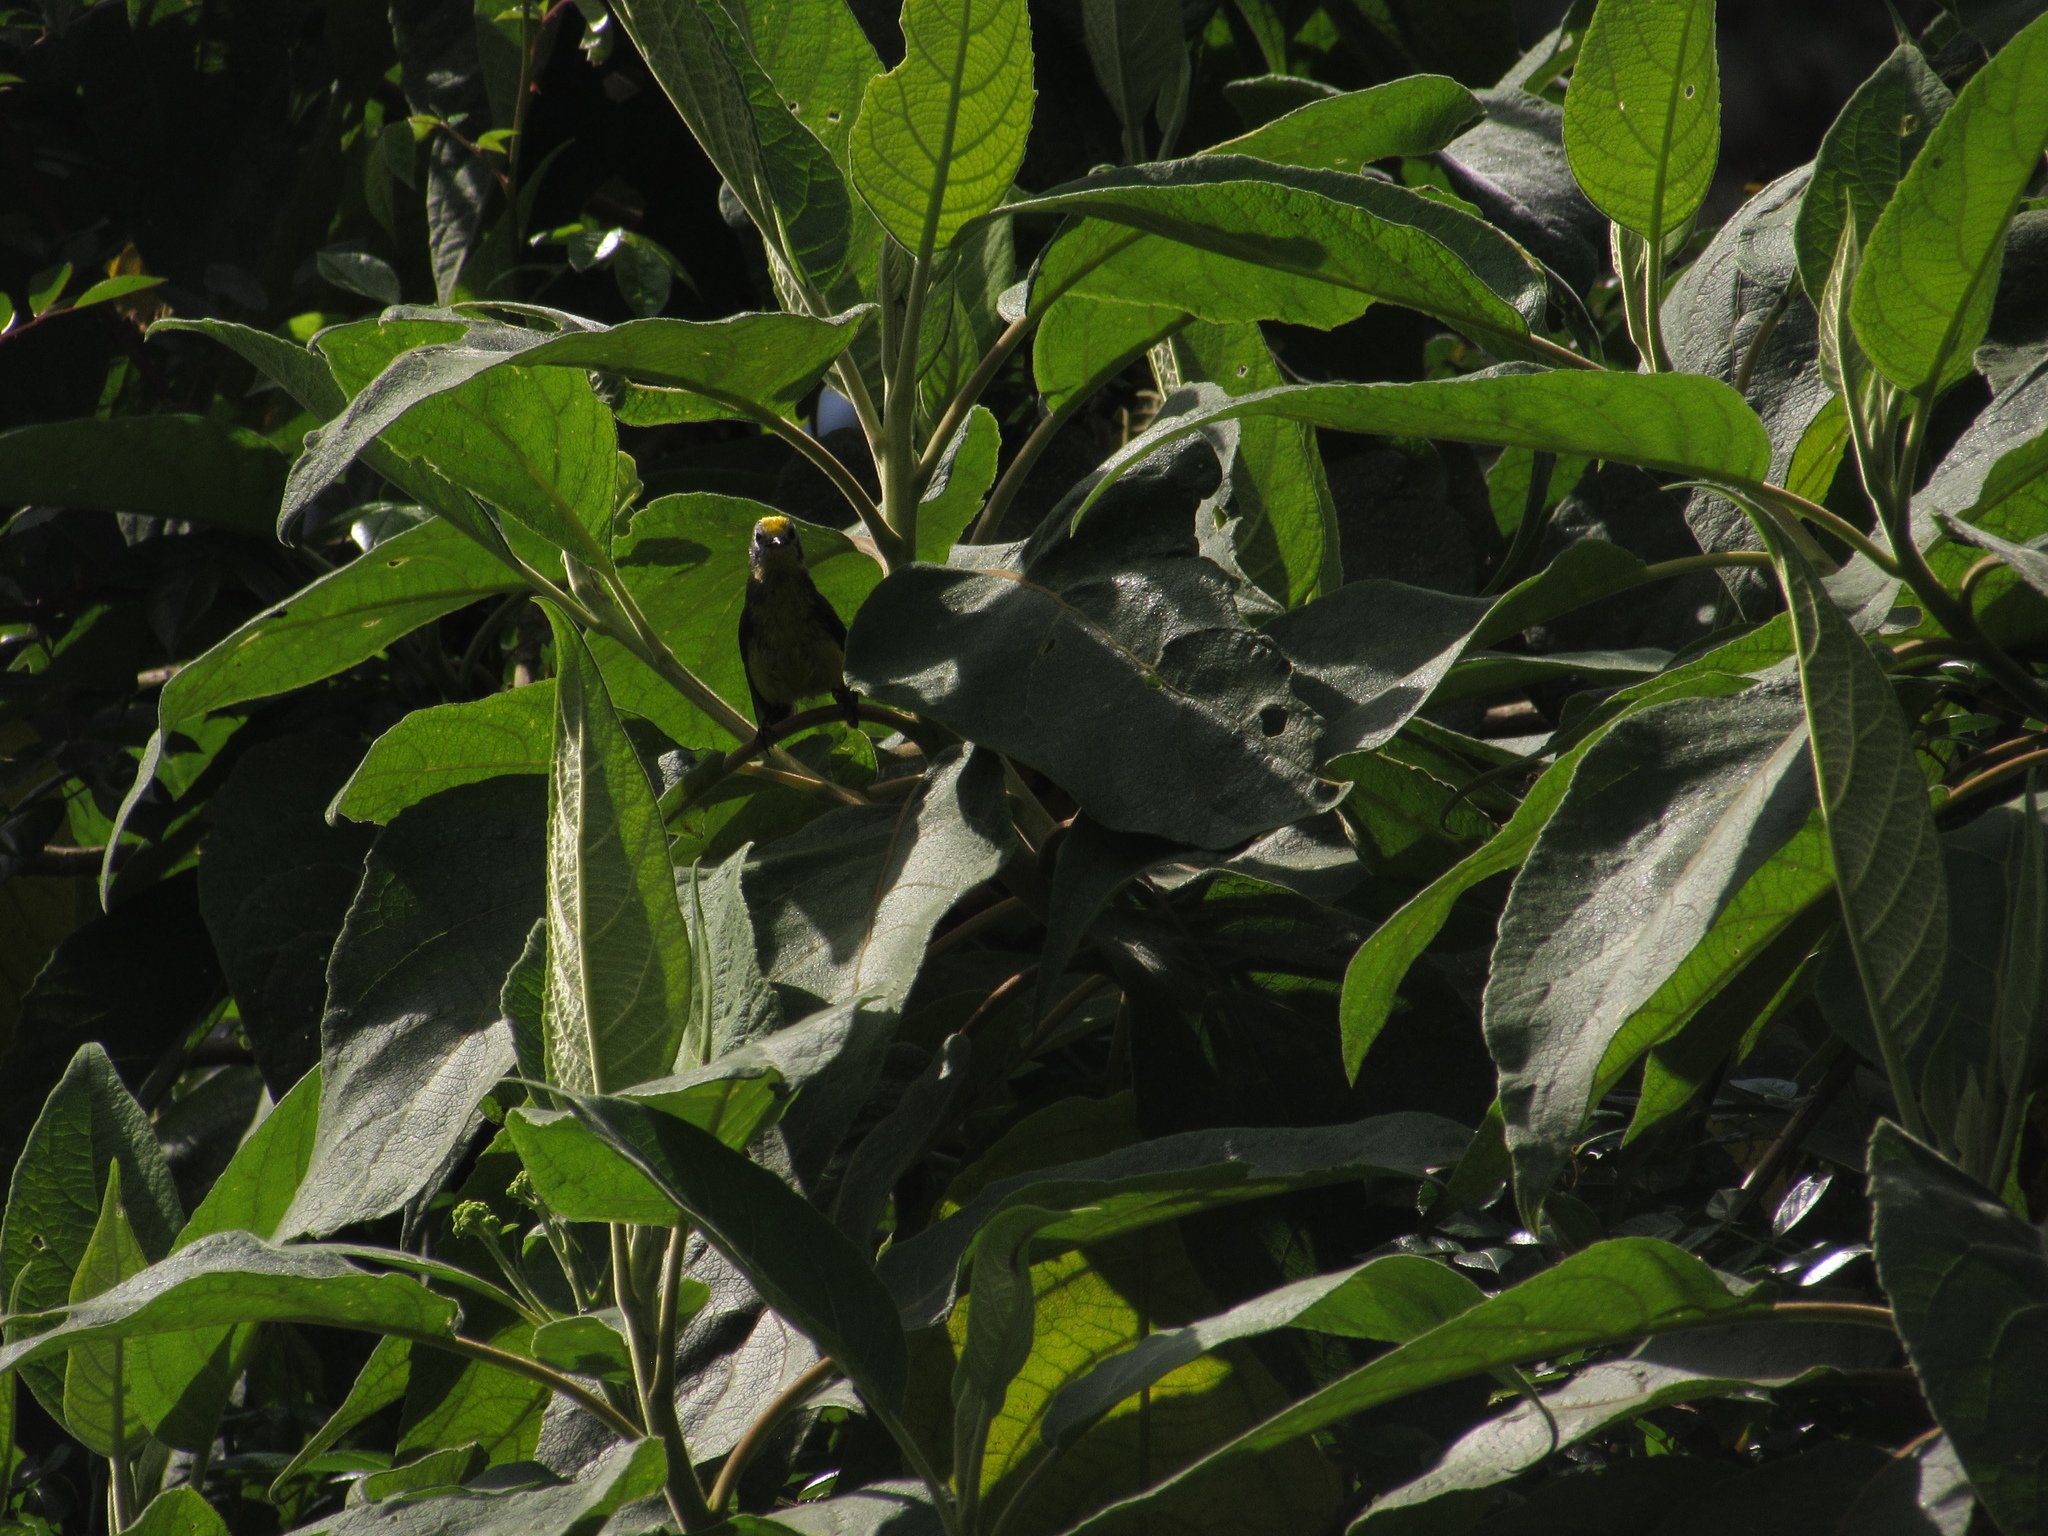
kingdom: Animalia
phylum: Chordata
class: Aves
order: Passeriformes
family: Parulidae
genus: Myioborus
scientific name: Myioborus ornatus
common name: Golden-fronted whitestart
